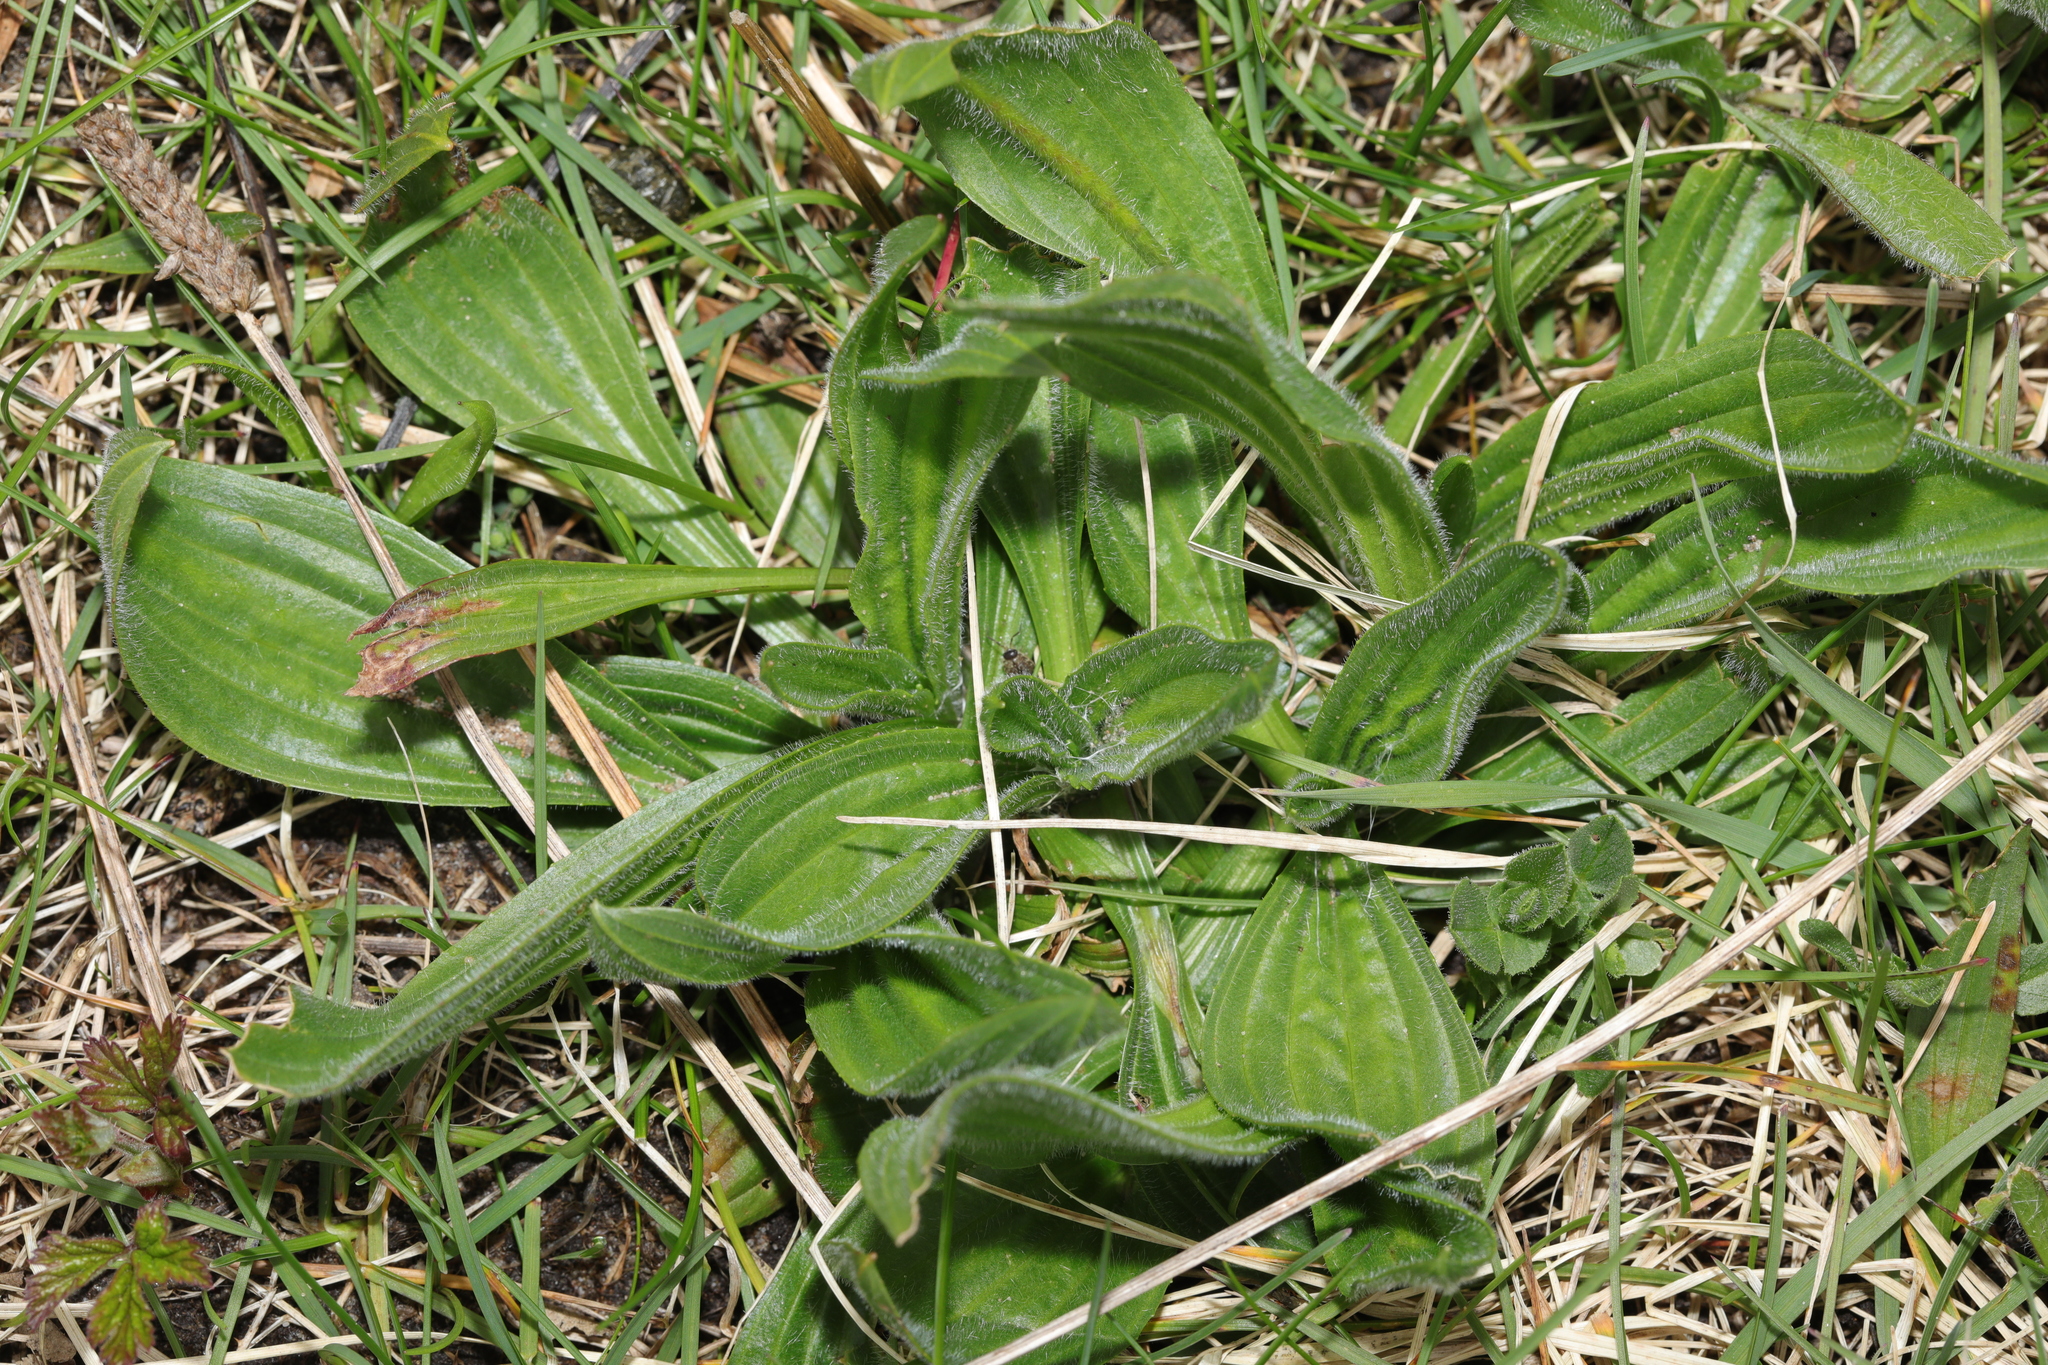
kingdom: Plantae
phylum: Tracheophyta
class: Magnoliopsida
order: Lamiales
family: Plantaginaceae
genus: Plantago
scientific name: Plantago lanceolata
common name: Ribwort plantain
